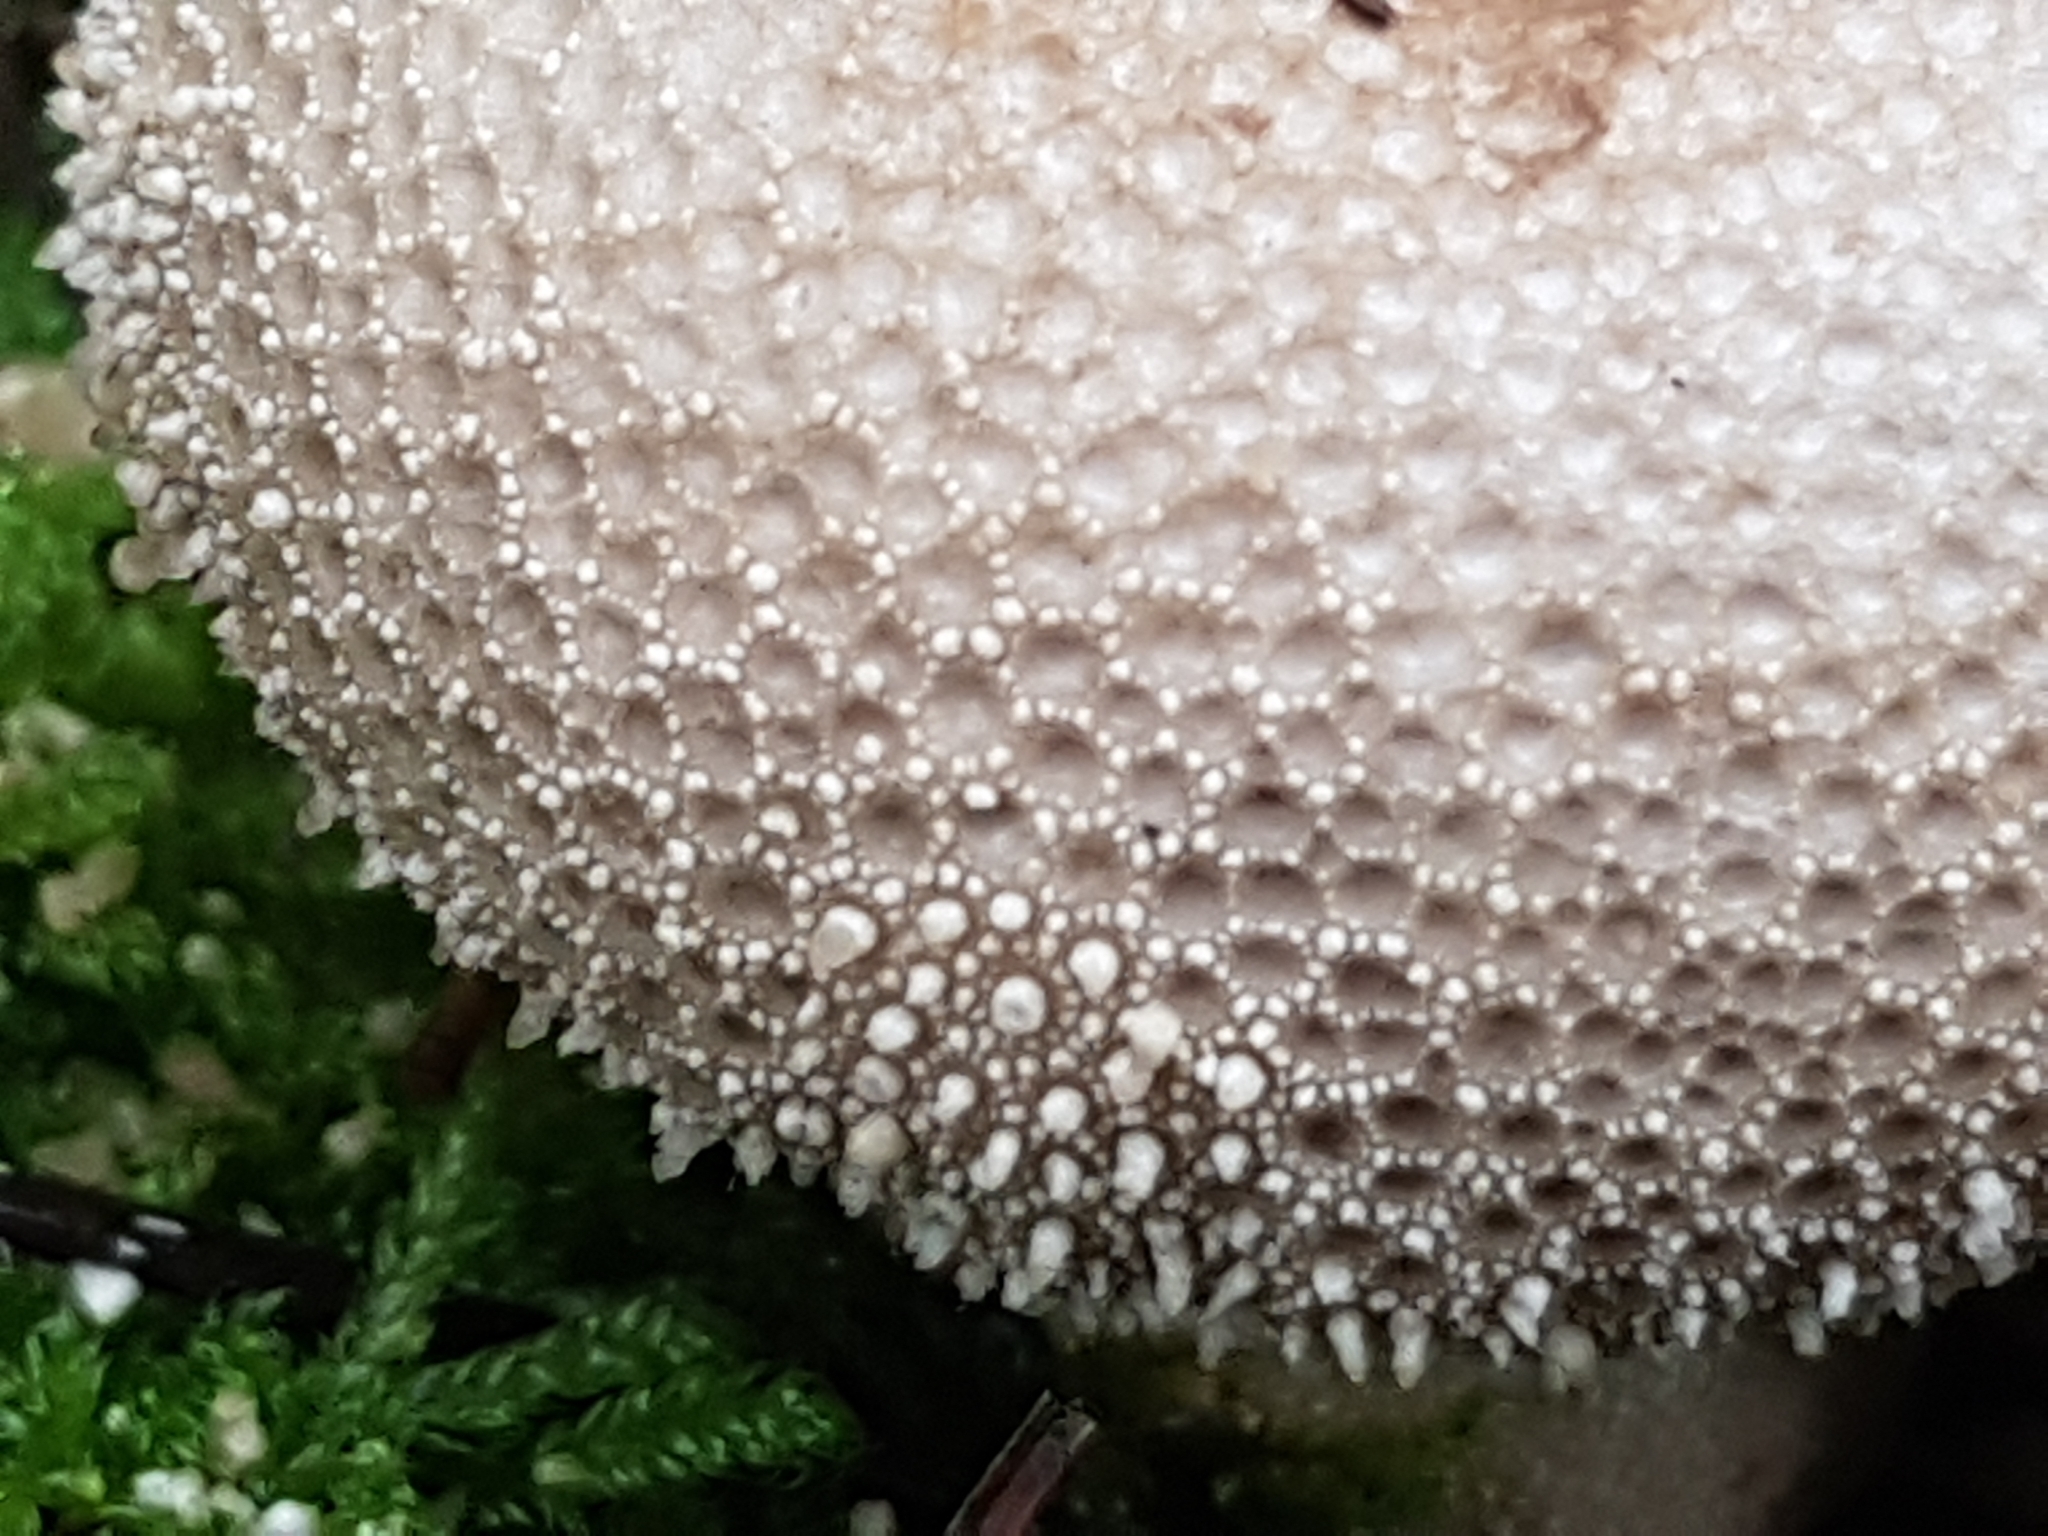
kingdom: Fungi
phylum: Basidiomycota
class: Agaricomycetes
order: Agaricales
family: Lycoperdaceae
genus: Lycoperdon
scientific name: Lycoperdon perlatum
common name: Common puffball
